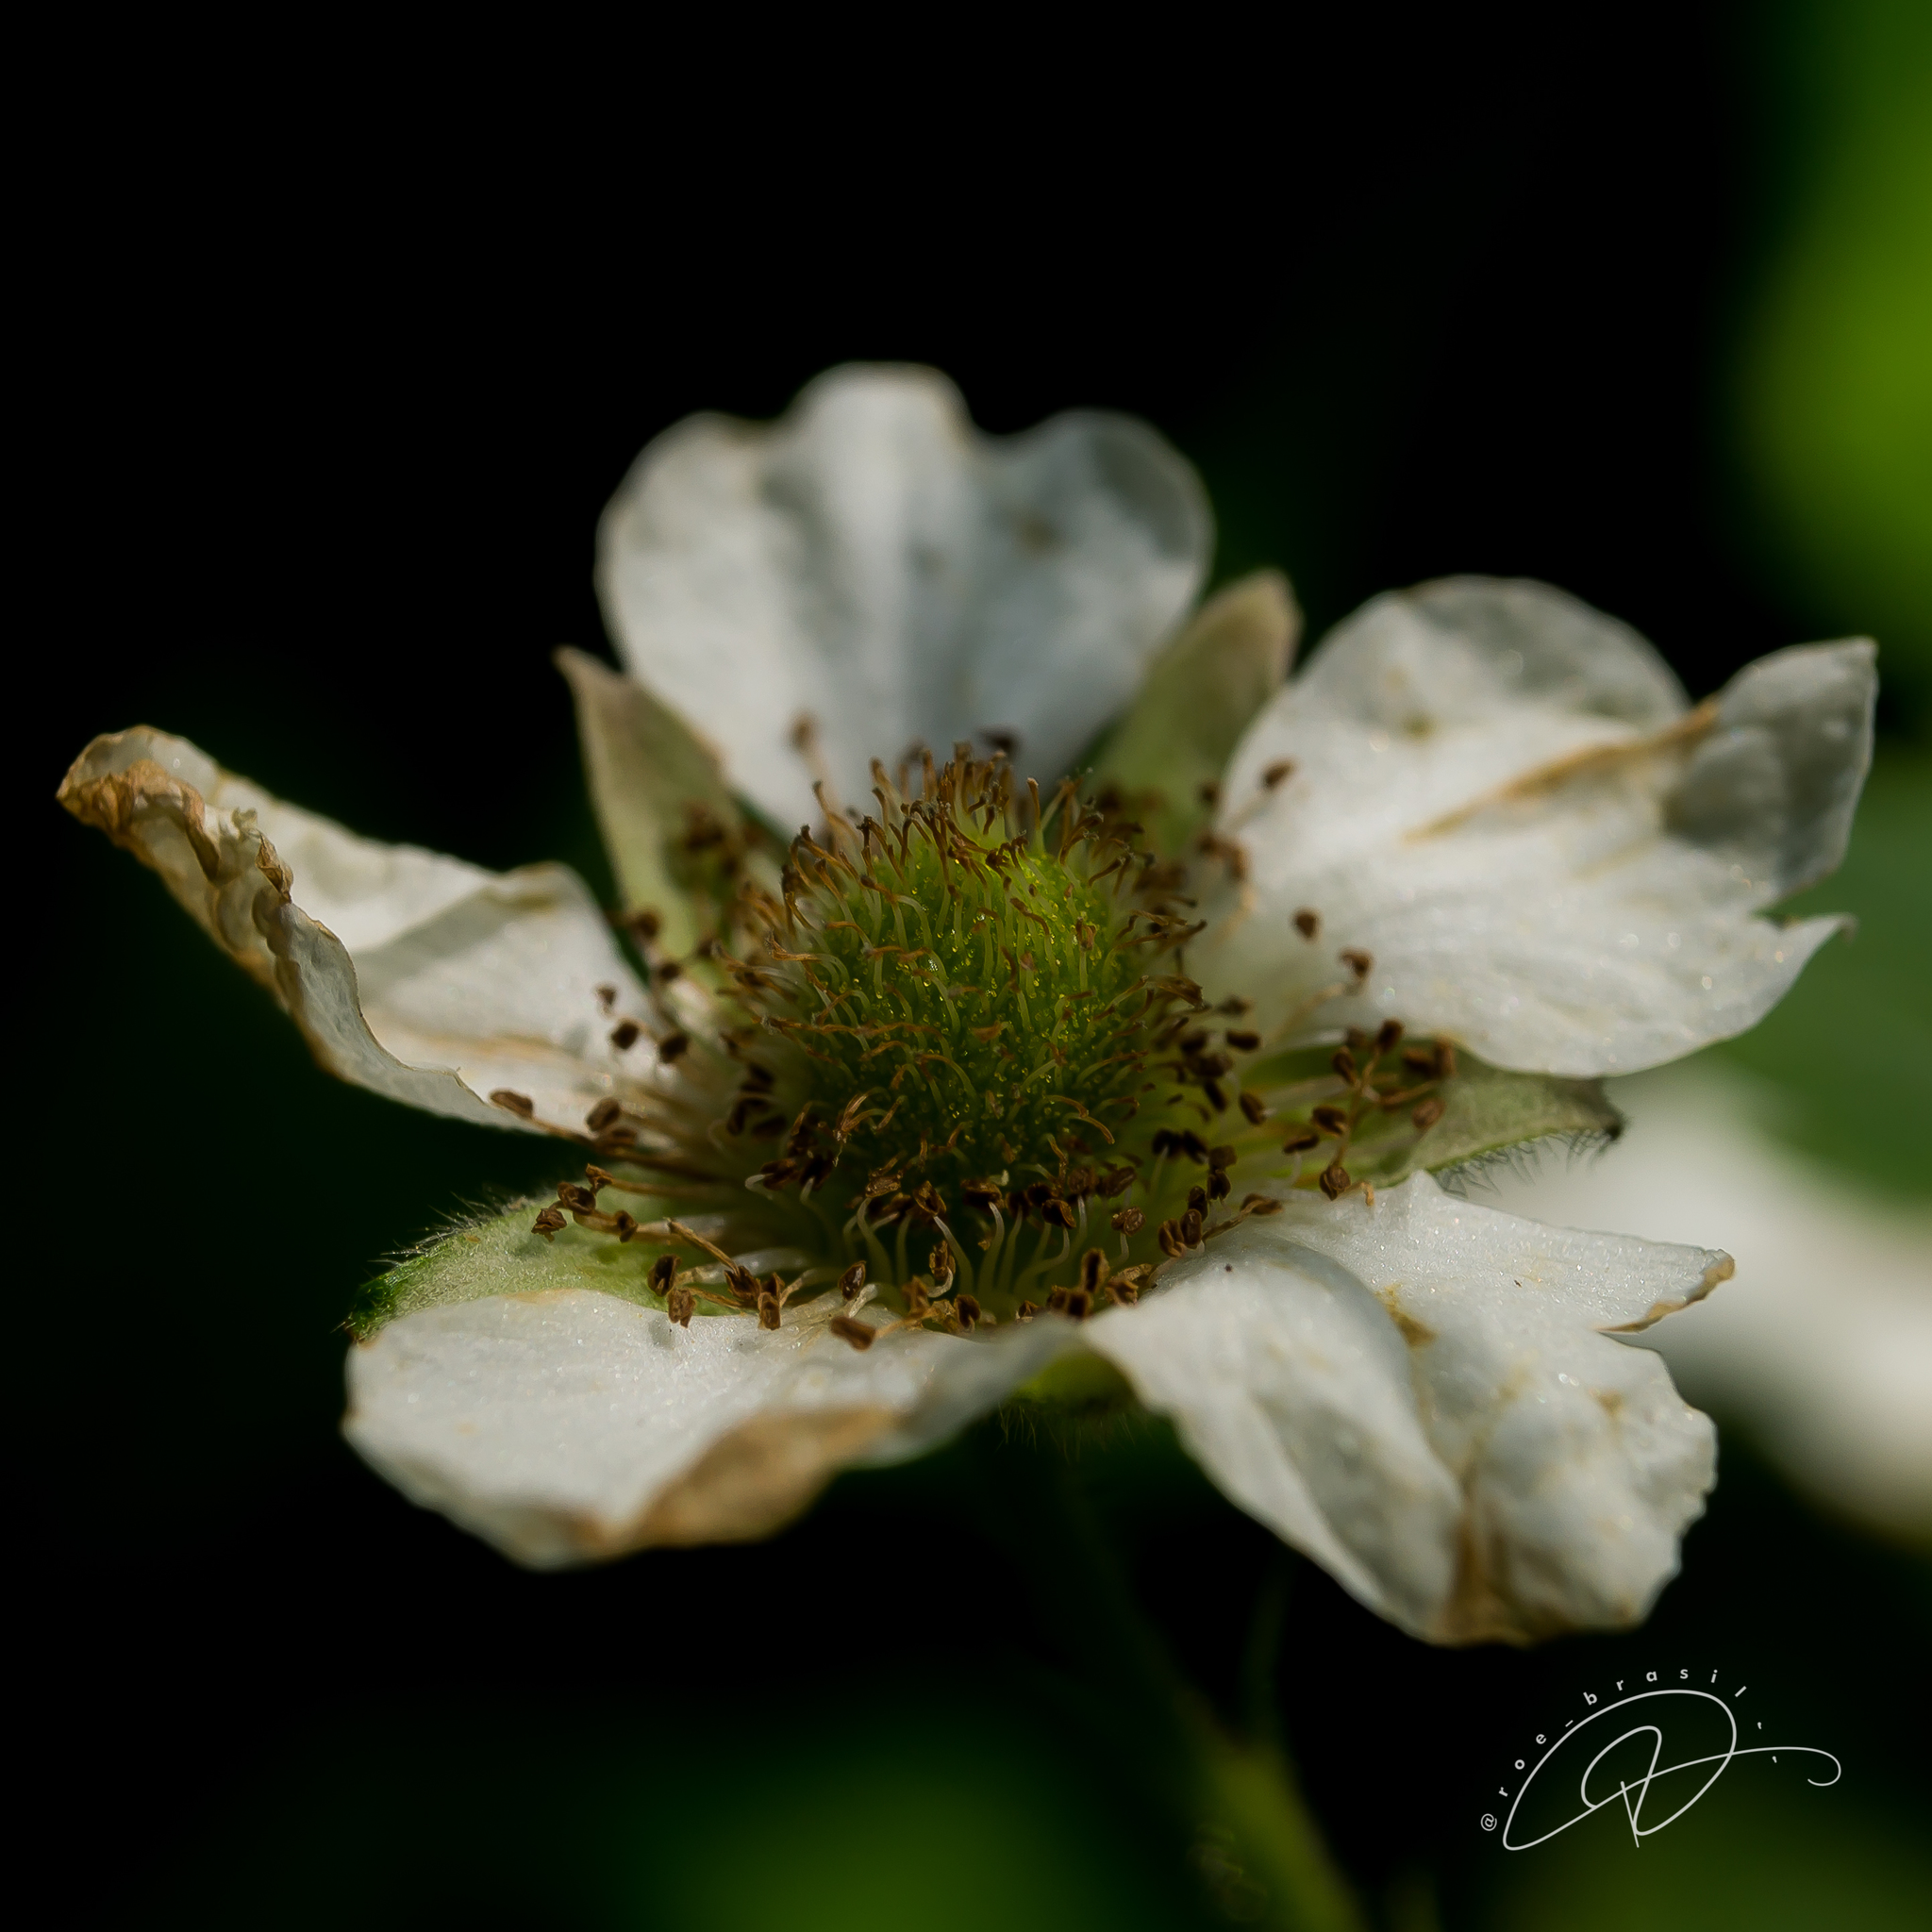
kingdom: Plantae
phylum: Tracheophyta
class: Magnoliopsida
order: Rosales
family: Rosaceae
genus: Rubus
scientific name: Rubus rosifolius
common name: Roseleaf raspberry
